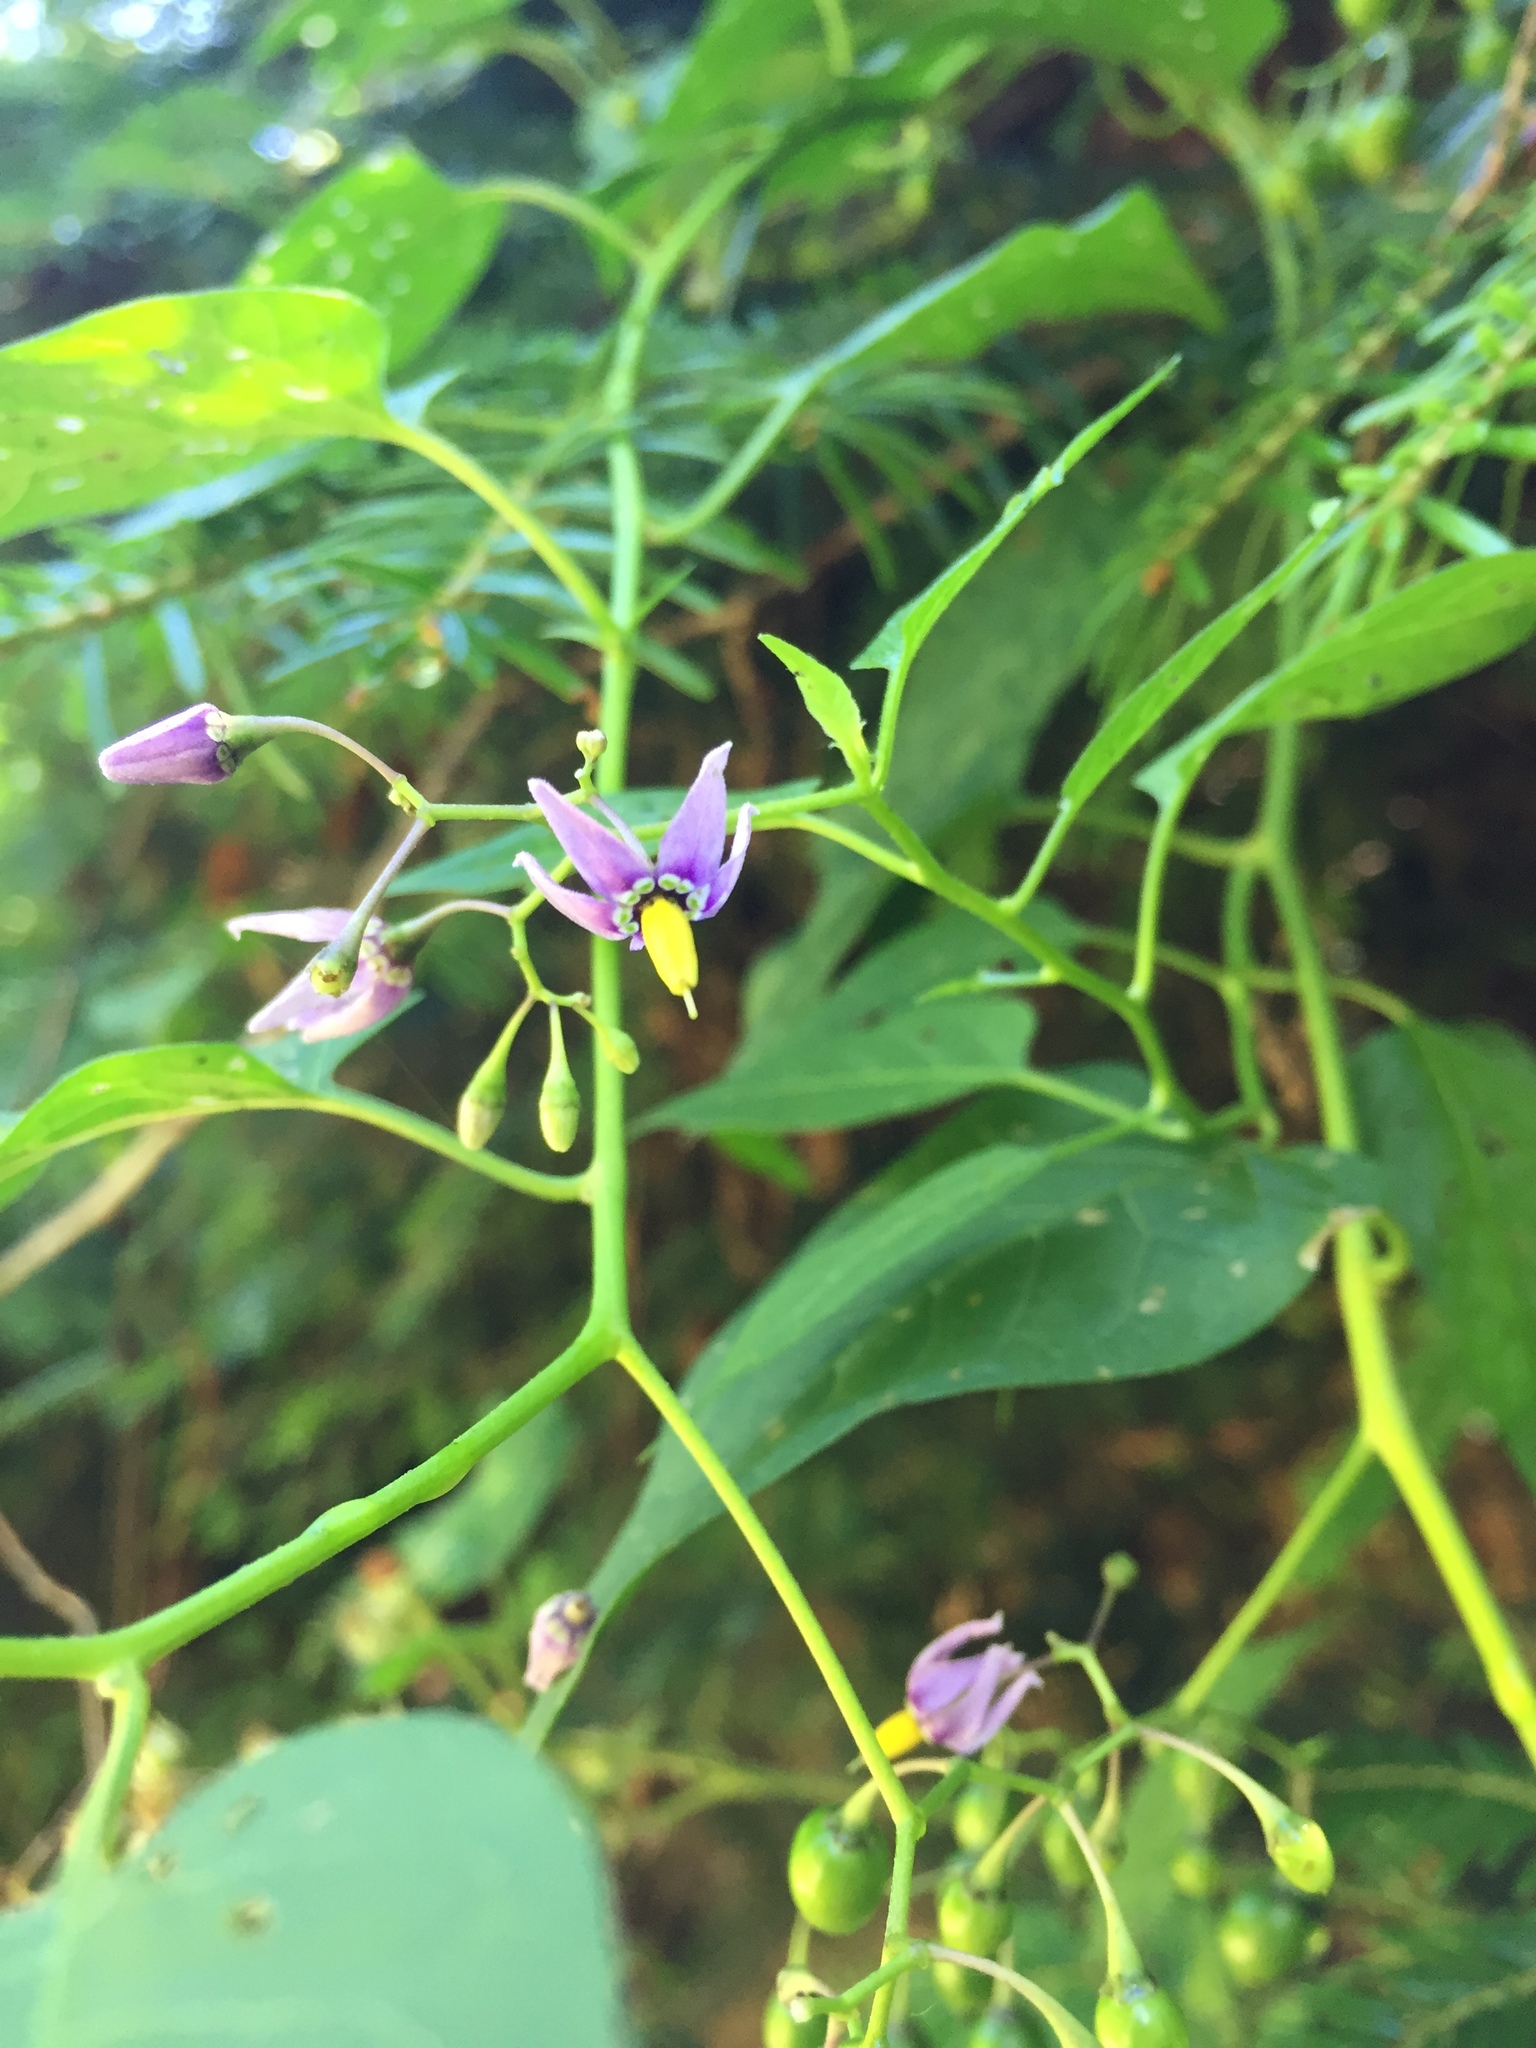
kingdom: Plantae
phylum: Tracheophyta
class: Magnoliopsida
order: Solanales
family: Solanaceae
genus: Solanum
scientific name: Solanum dulcamara
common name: Climbing nightshade
